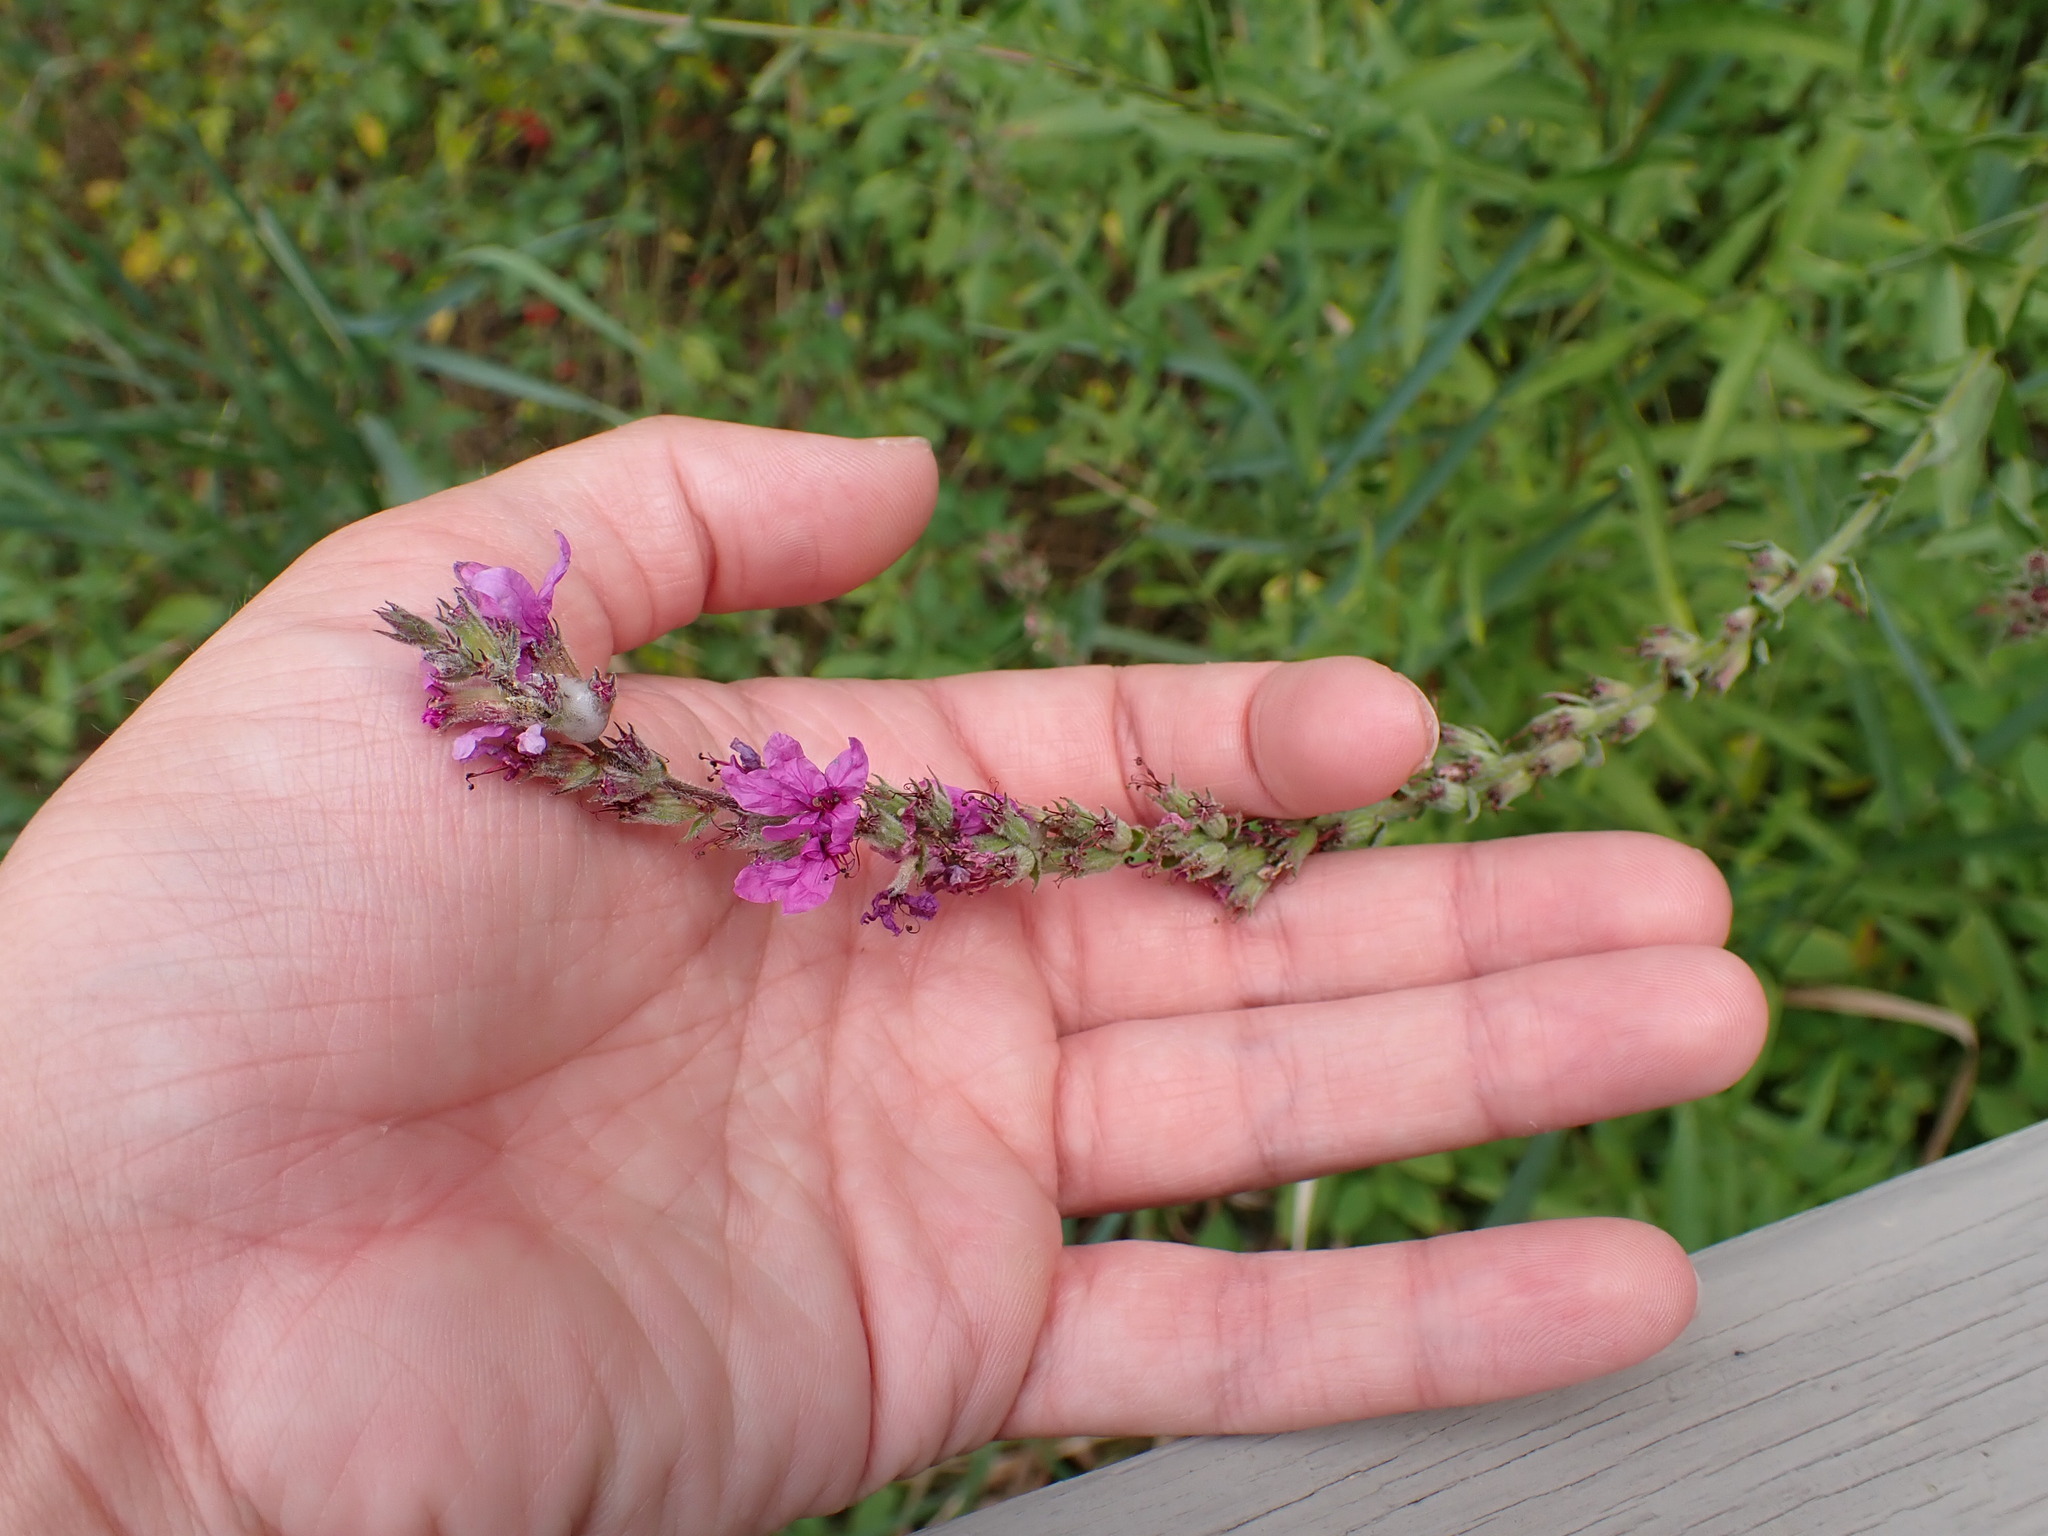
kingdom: Plantae
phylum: Tracheophyta
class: Magnoliopsida
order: Myrtales
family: Lythraceae
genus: Lythrum
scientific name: Lythrum salicaria
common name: Purple loosestrife
